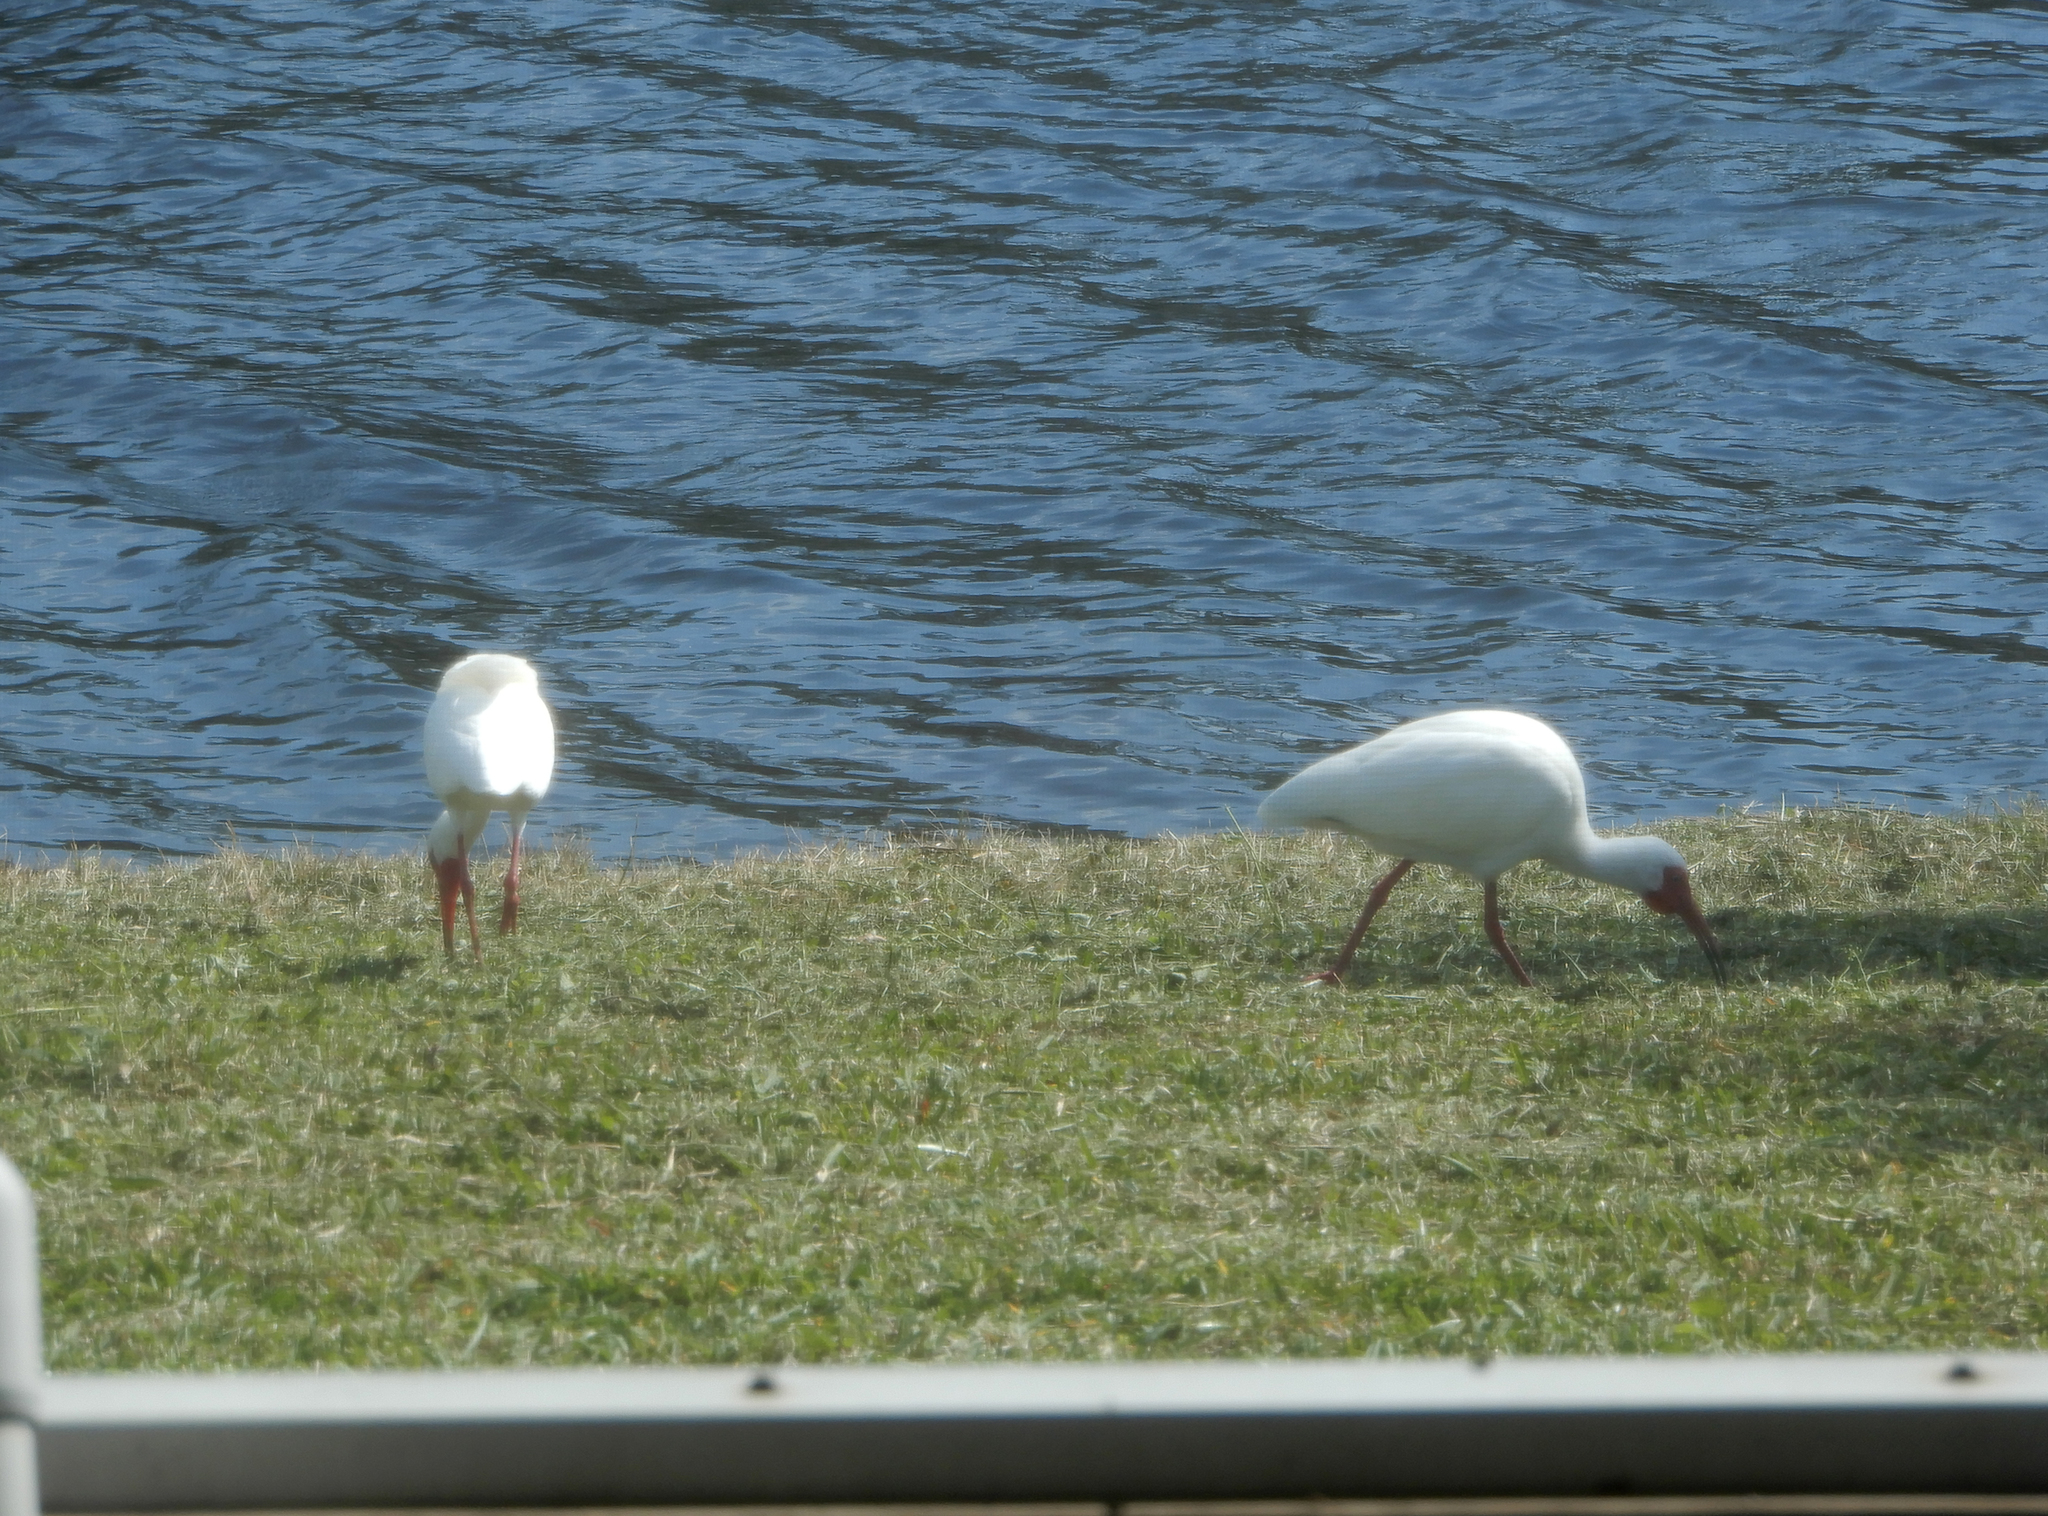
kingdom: Animalia
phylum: Chordata
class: Aves
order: Pelecaniformes
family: Threskiornithidae
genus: Eudocimus
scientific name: Eudocimus albus
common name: White ibis
